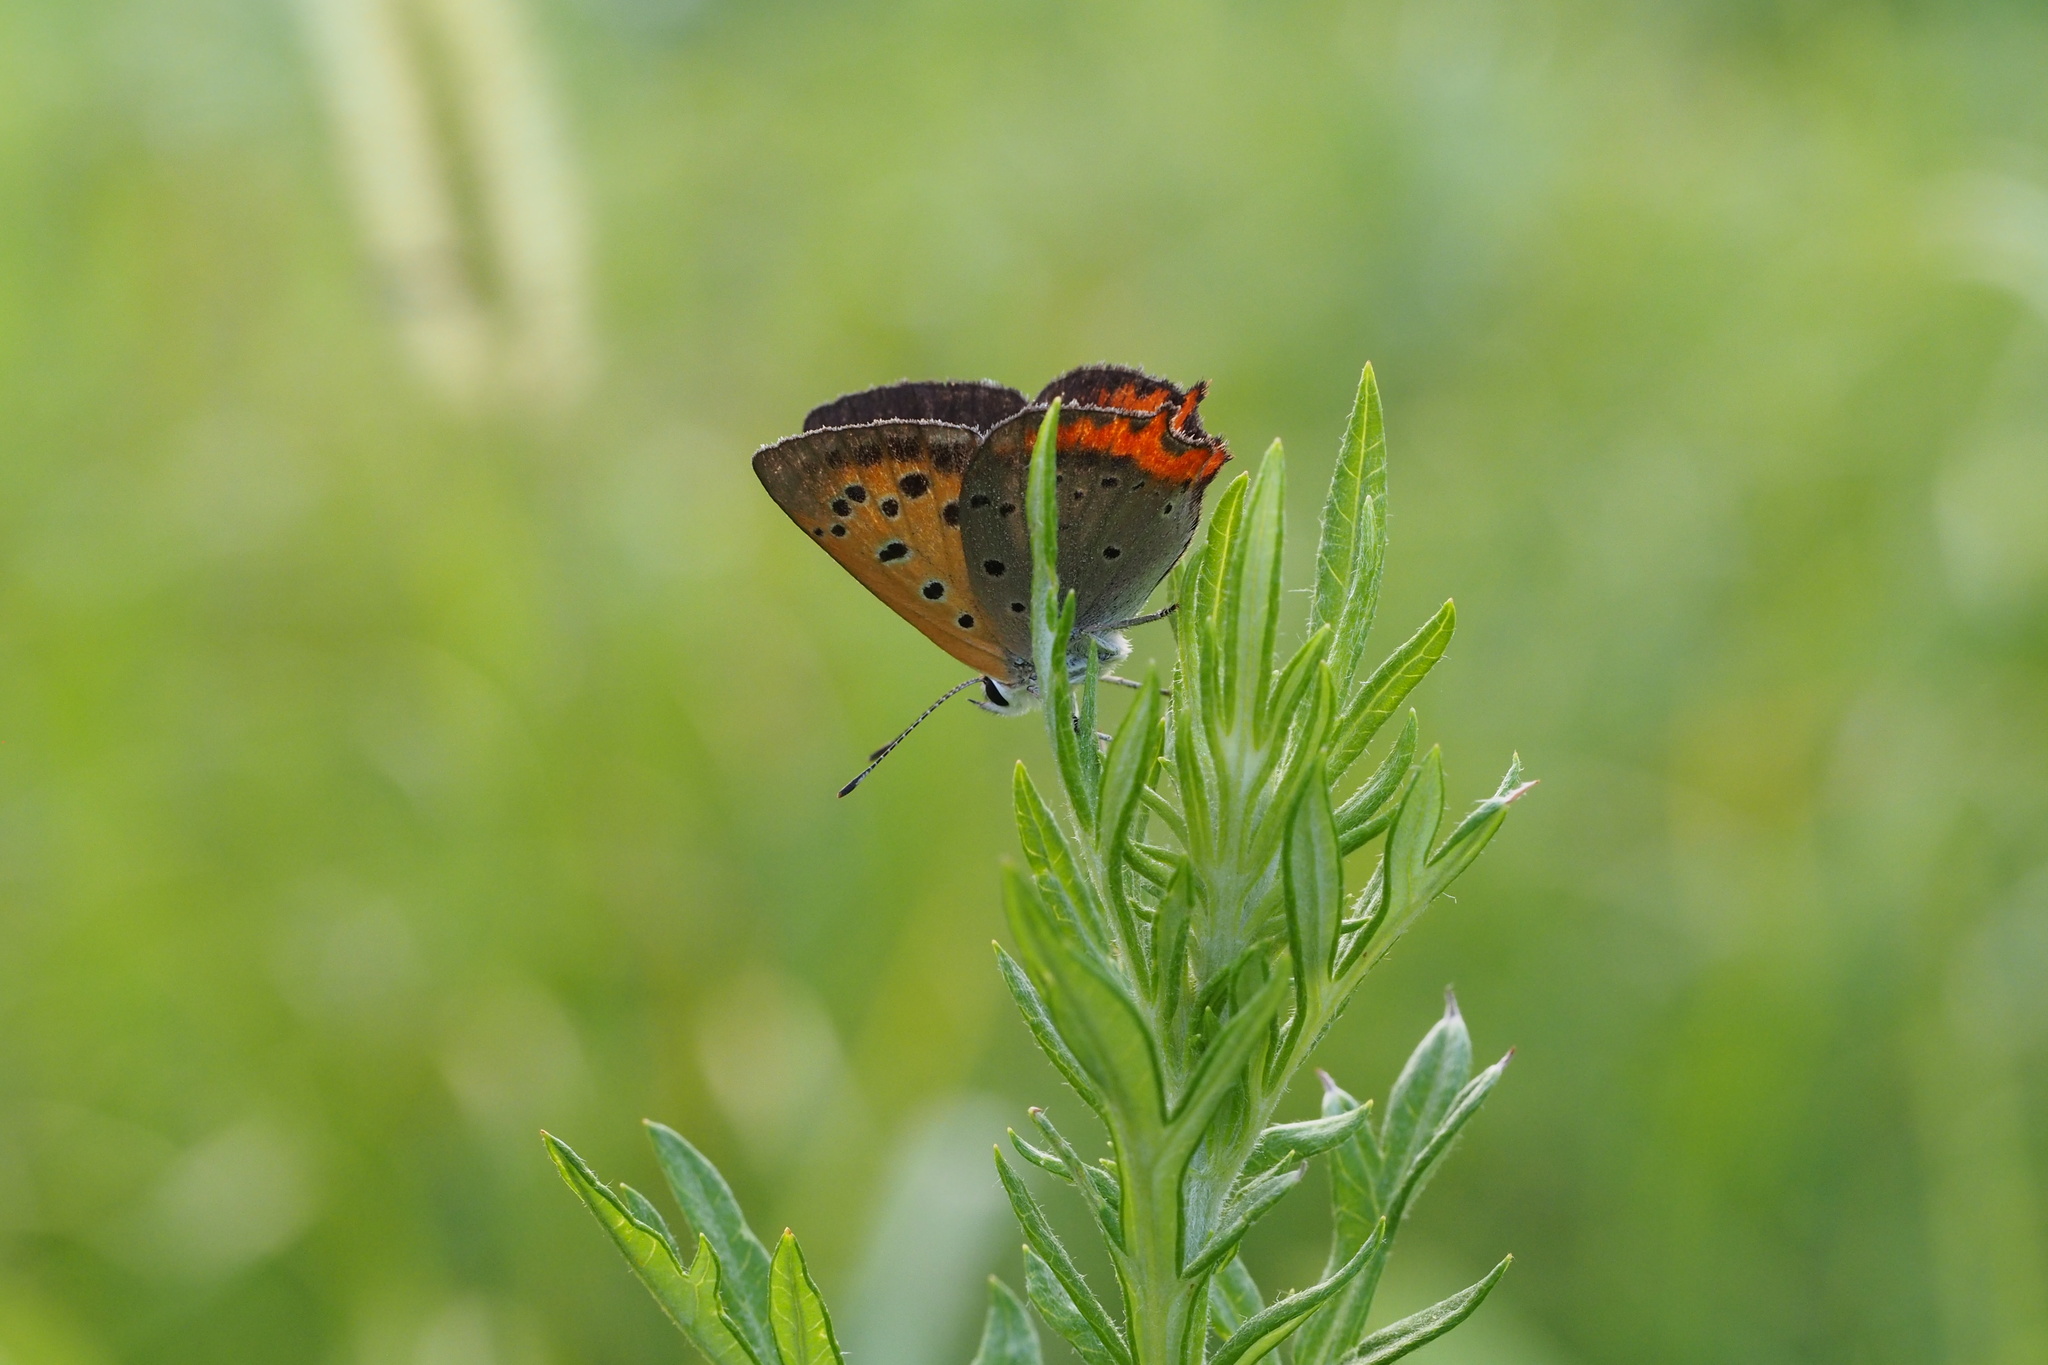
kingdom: Animalia
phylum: Arthropoda
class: Insecta
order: Lepidoptera
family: Lycaenidae
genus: Lycaena
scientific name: Lycaena phlaeas
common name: Small copper
